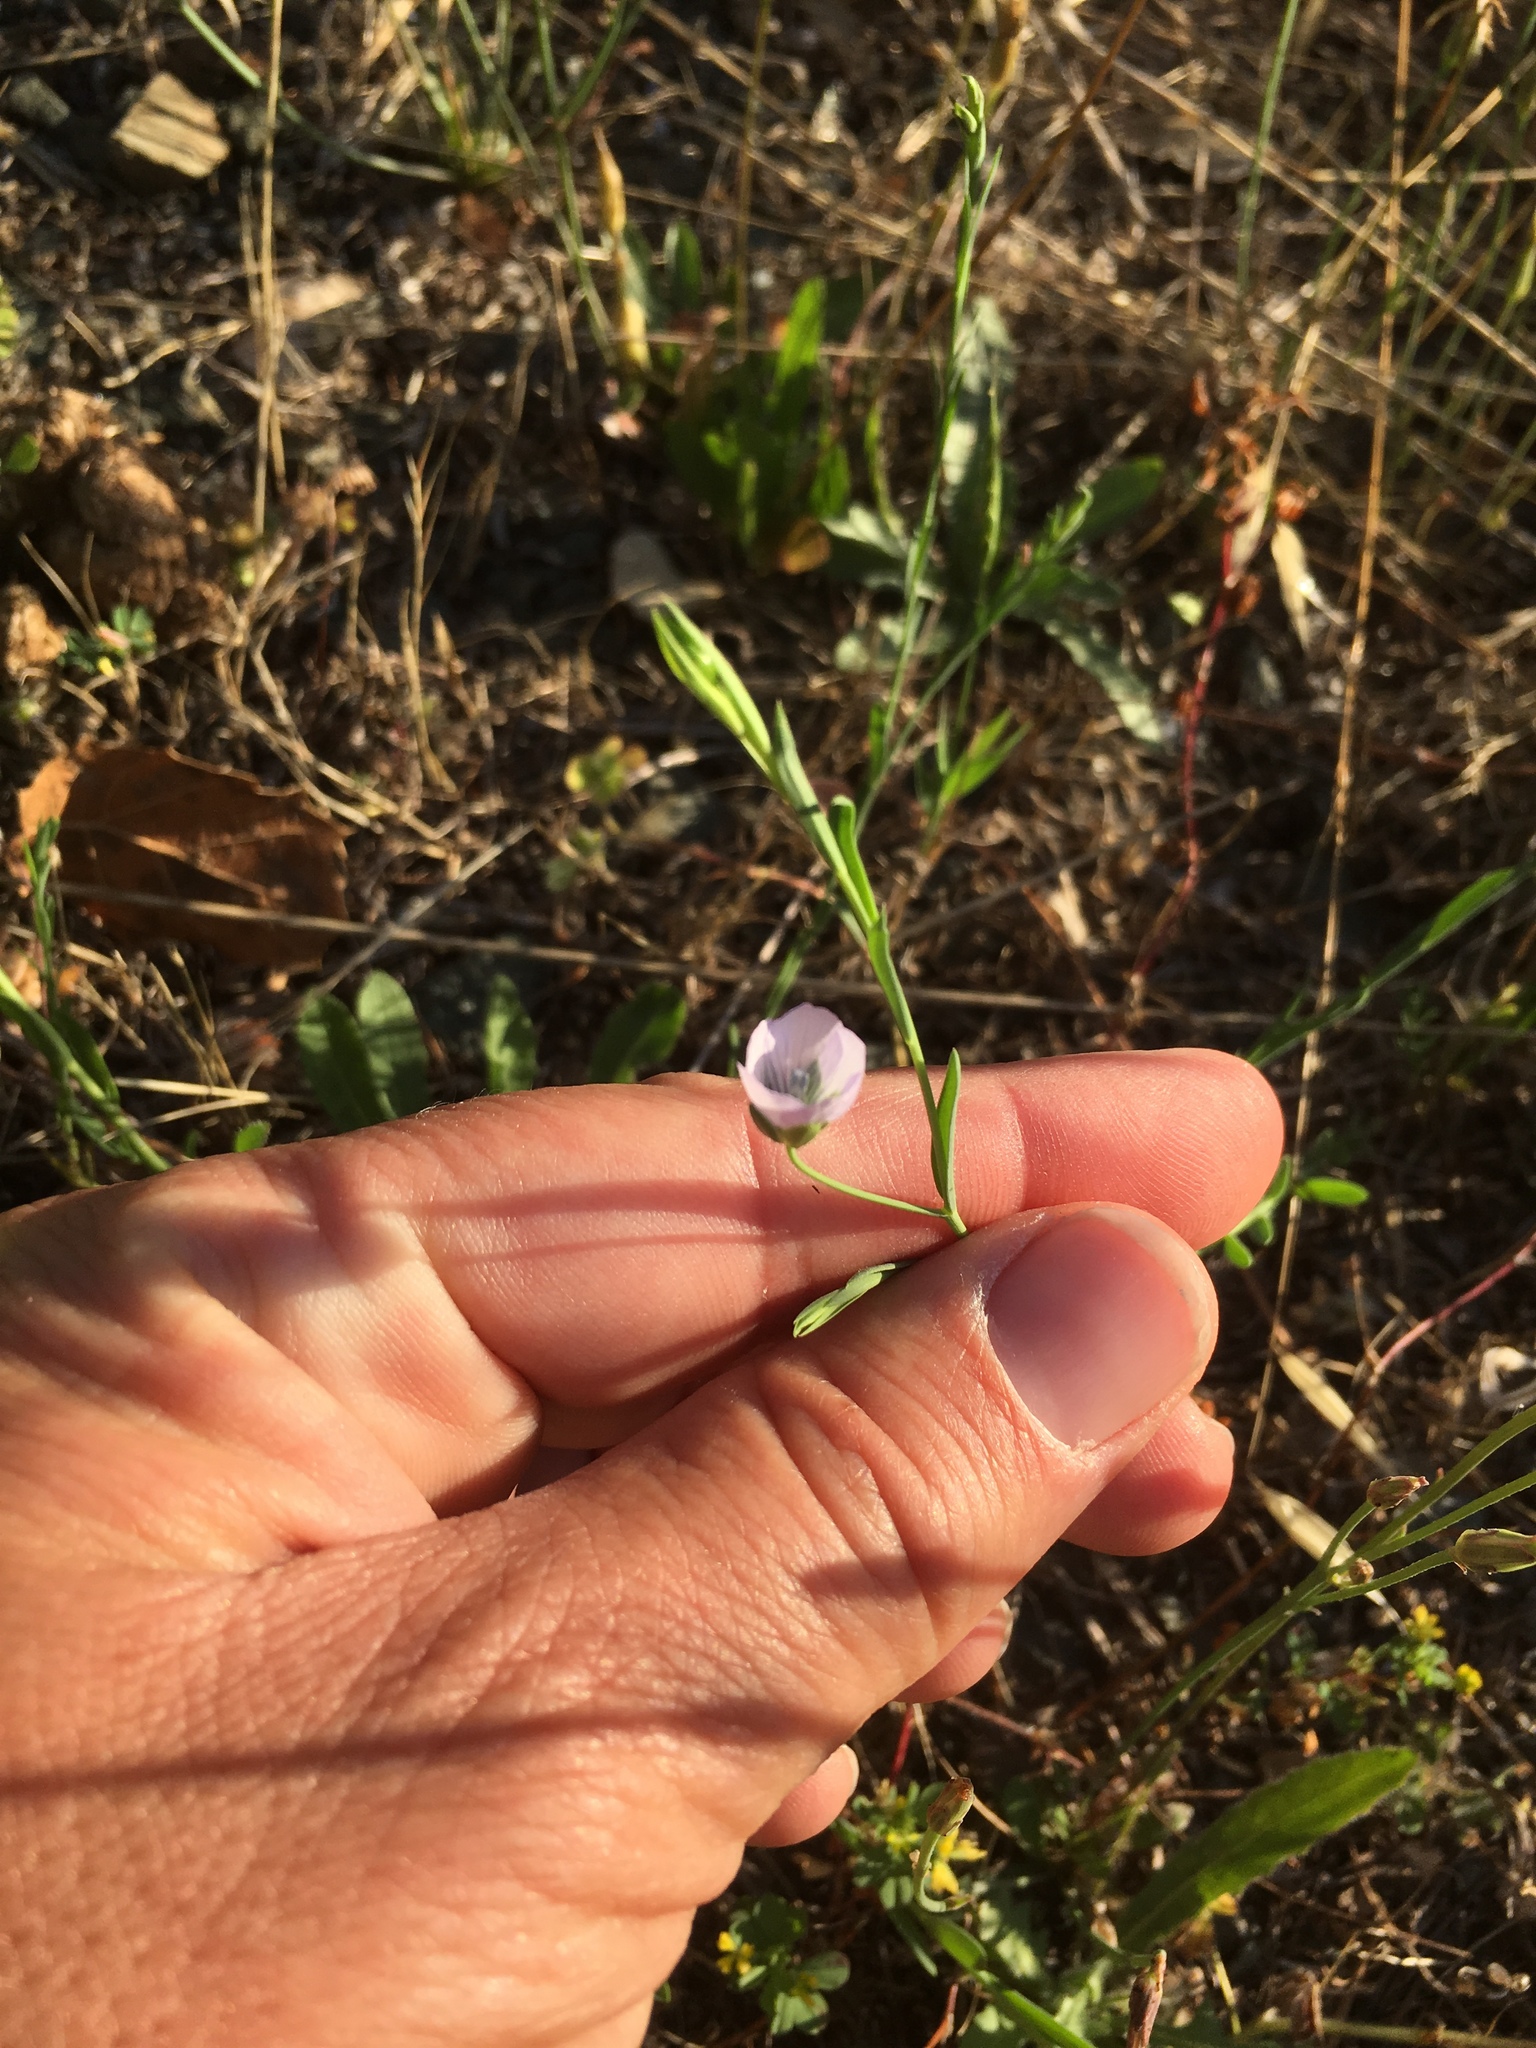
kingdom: Plantae
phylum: Tracheophyta
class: Magnoliopsida
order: Malpighiales
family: Linaceae
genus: Linum
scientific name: Linum bienne
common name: Pale flax
